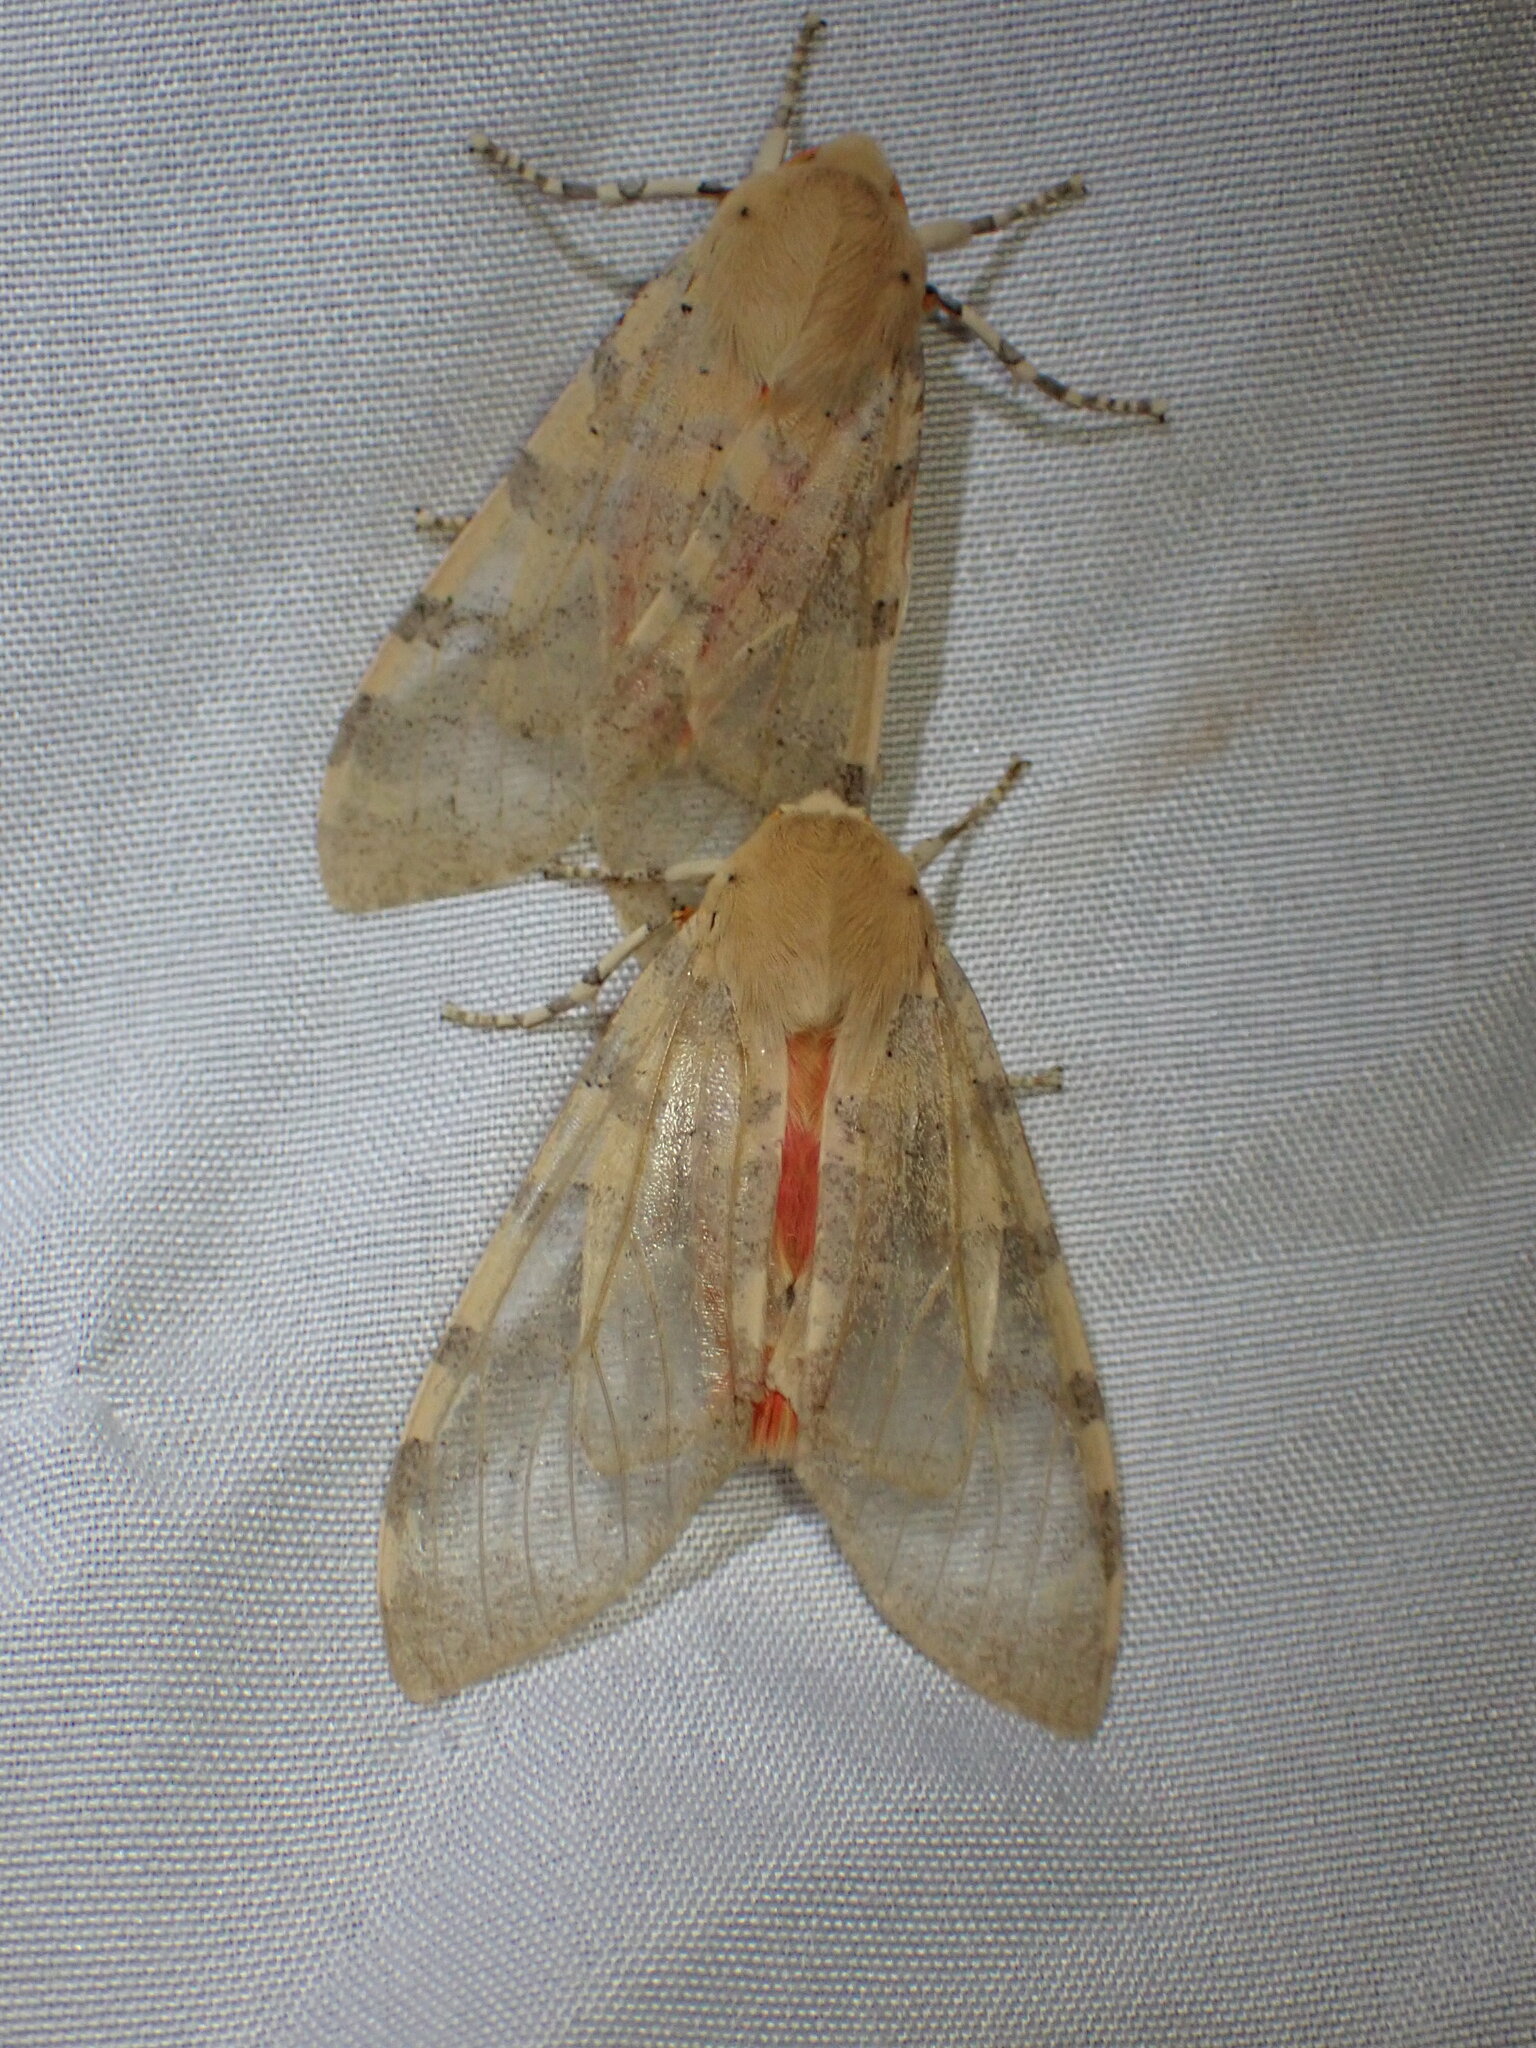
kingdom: Animalia
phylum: Arthropoda
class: Insecta
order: Lepidoptera
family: Erebidae
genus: Hemihyalea
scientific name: Hemihyalea edwardsii
